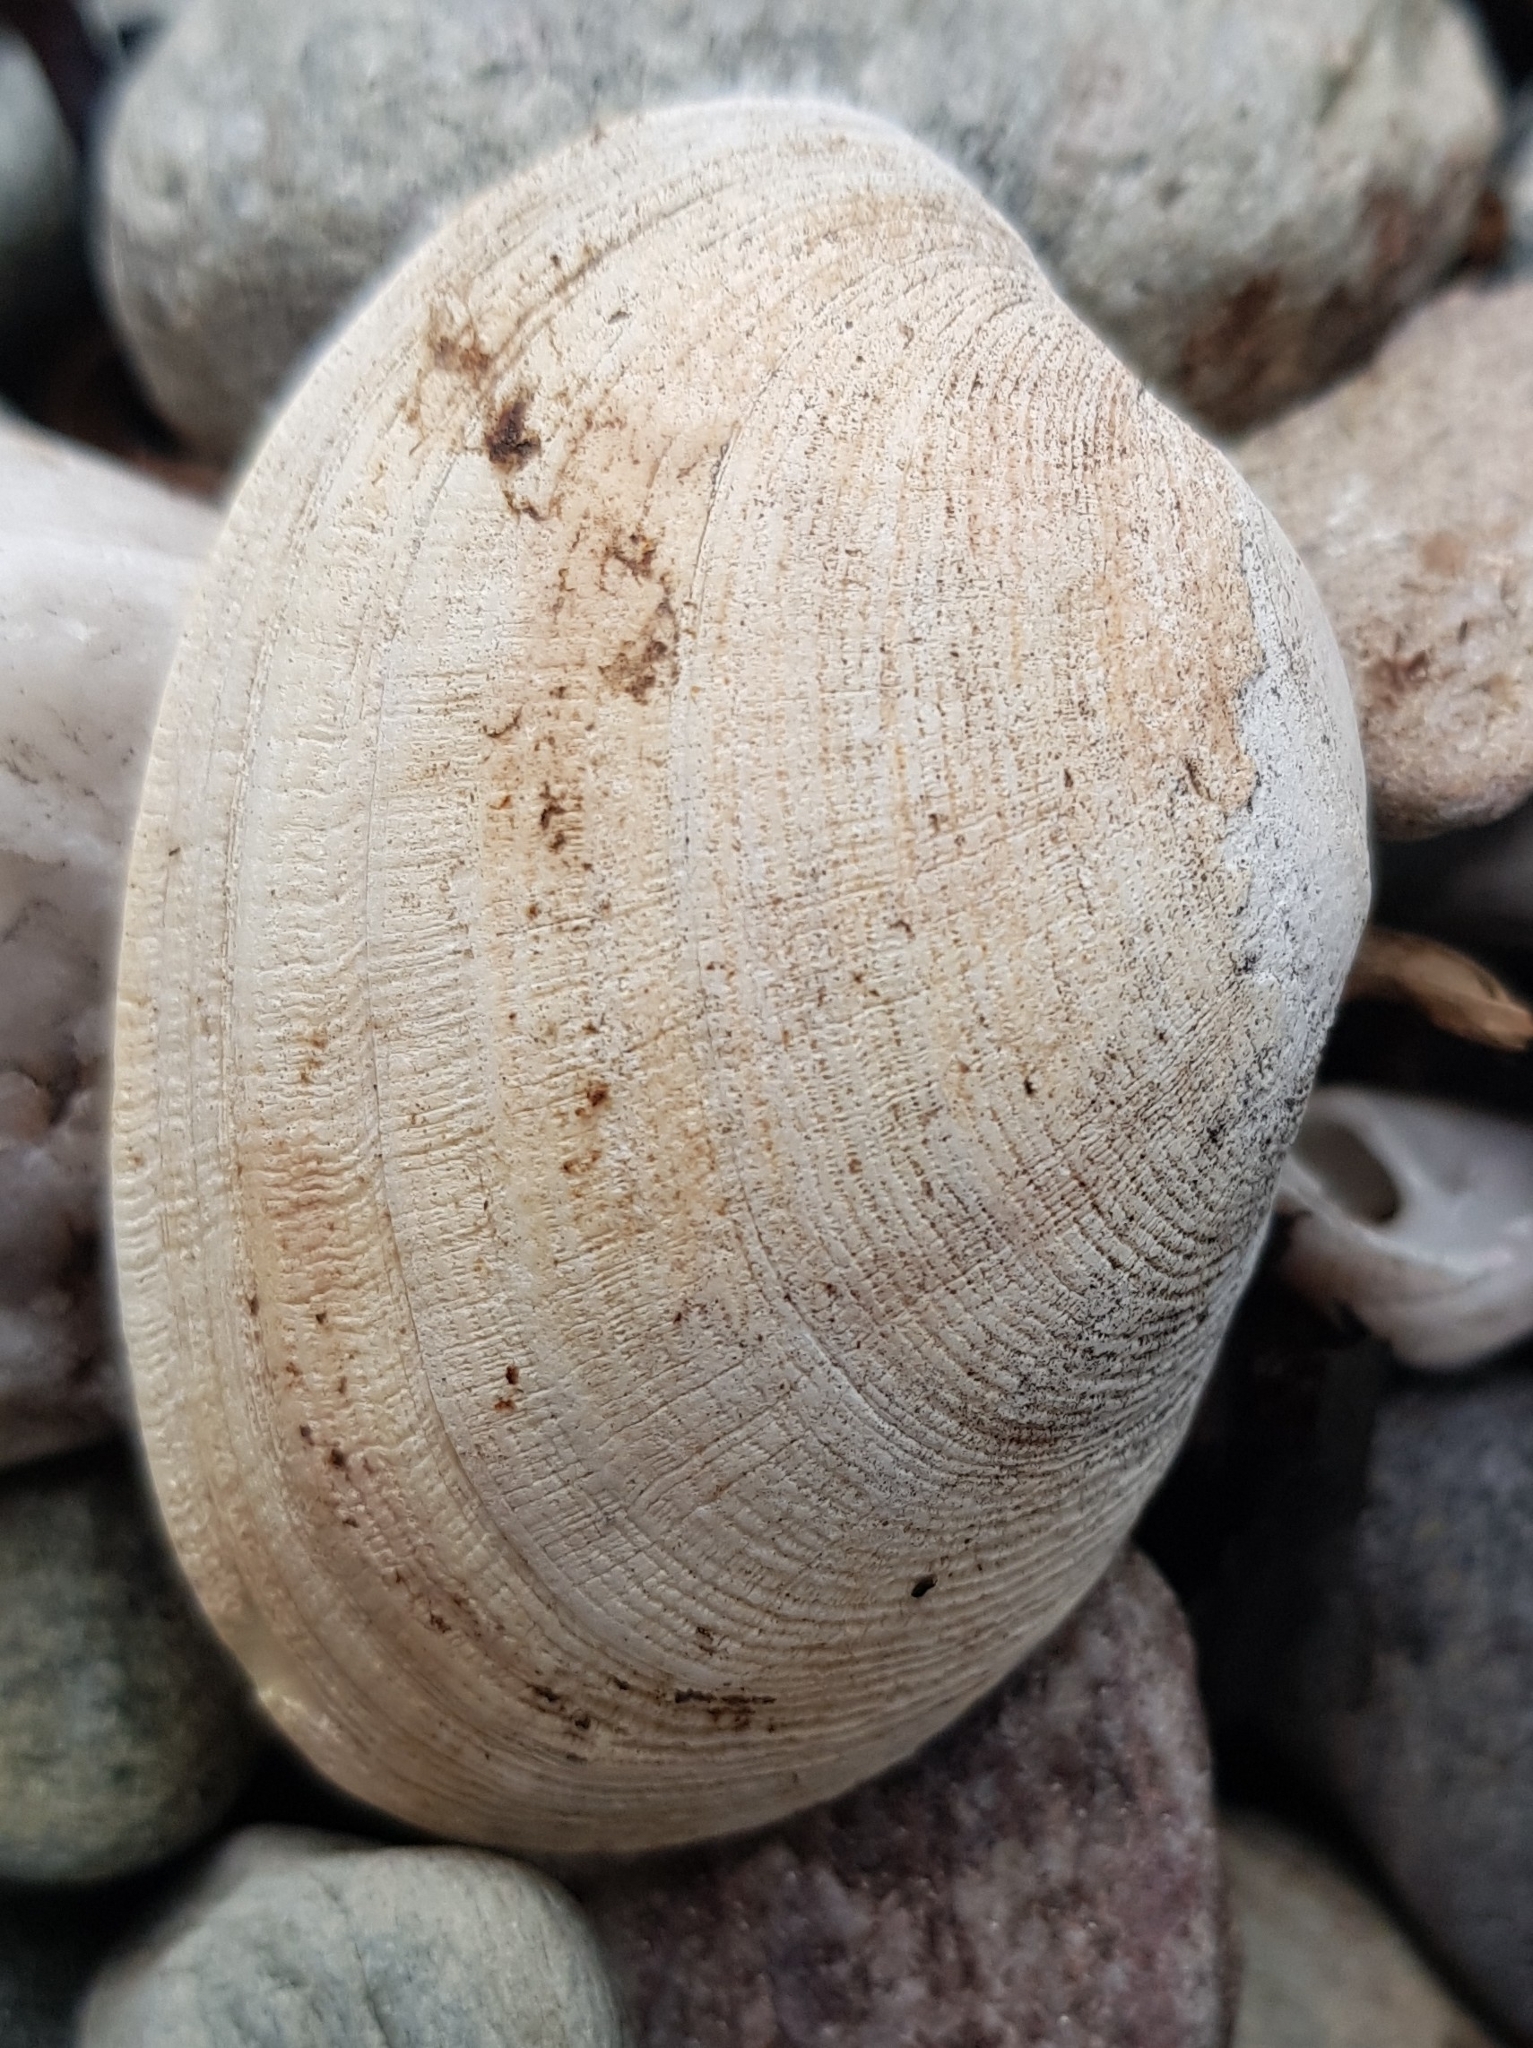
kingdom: Animalia
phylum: Mollusca
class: Bivalvia
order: Venerida
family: Veneridae
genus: Venerupis
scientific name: Venerupis corrugata
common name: Pullet carpet shell
